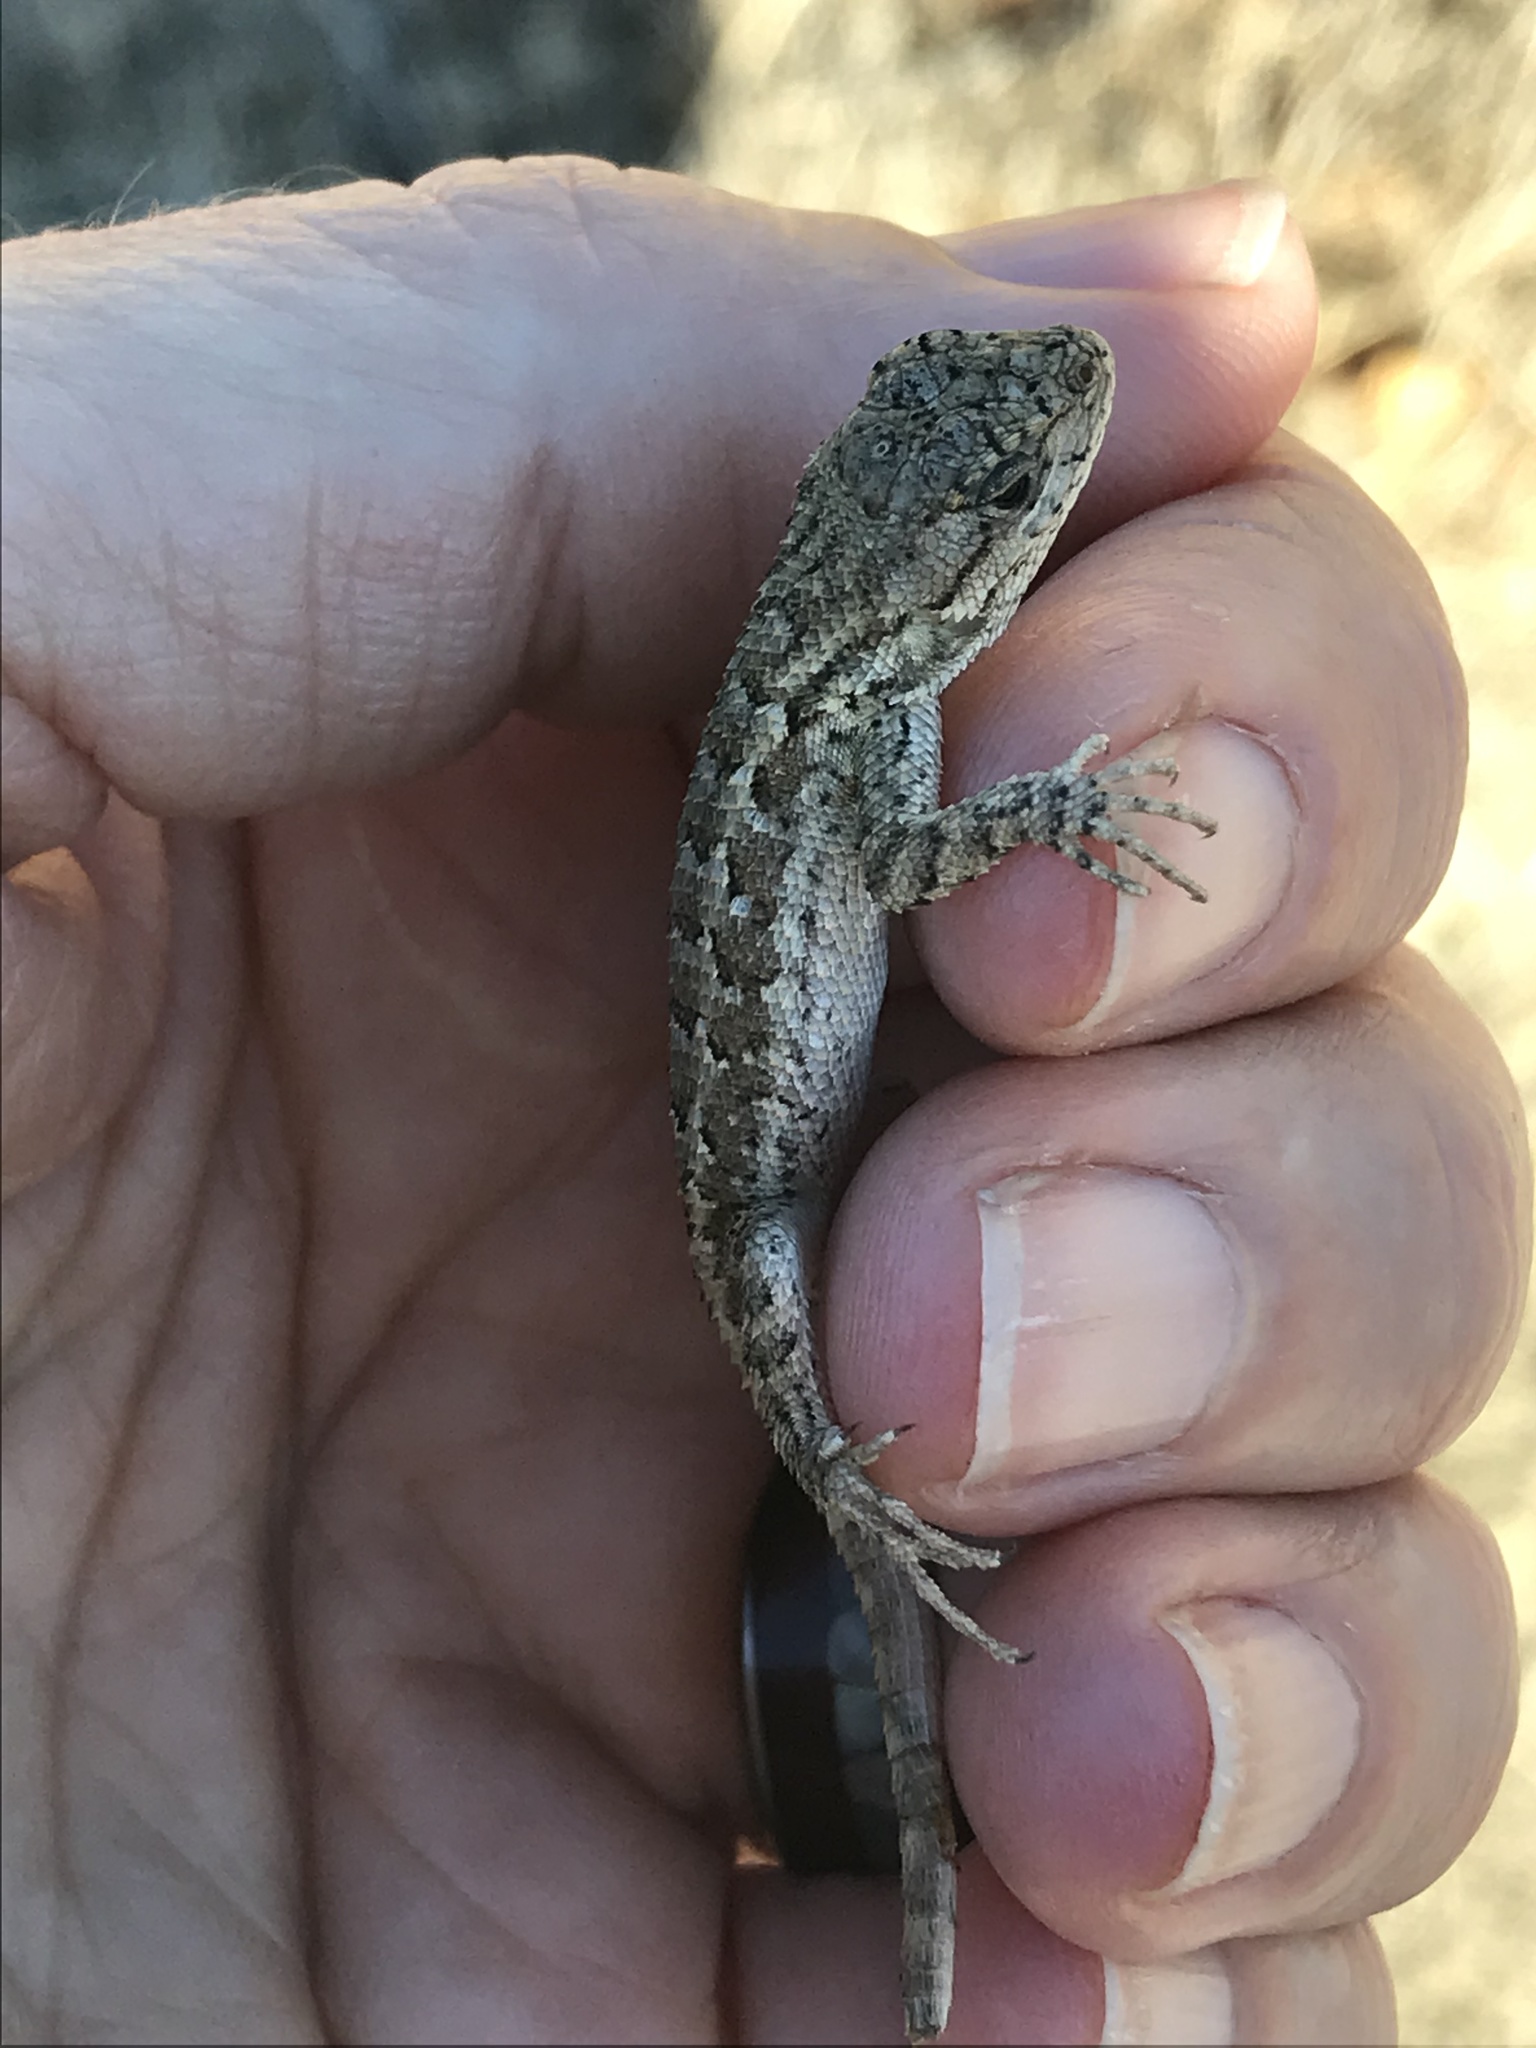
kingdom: Animalia
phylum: Chordata
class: Squamata
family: Phrynosomatidae
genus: Sceloporus
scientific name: Sceloporus occidentalis
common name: Western fence lizard
